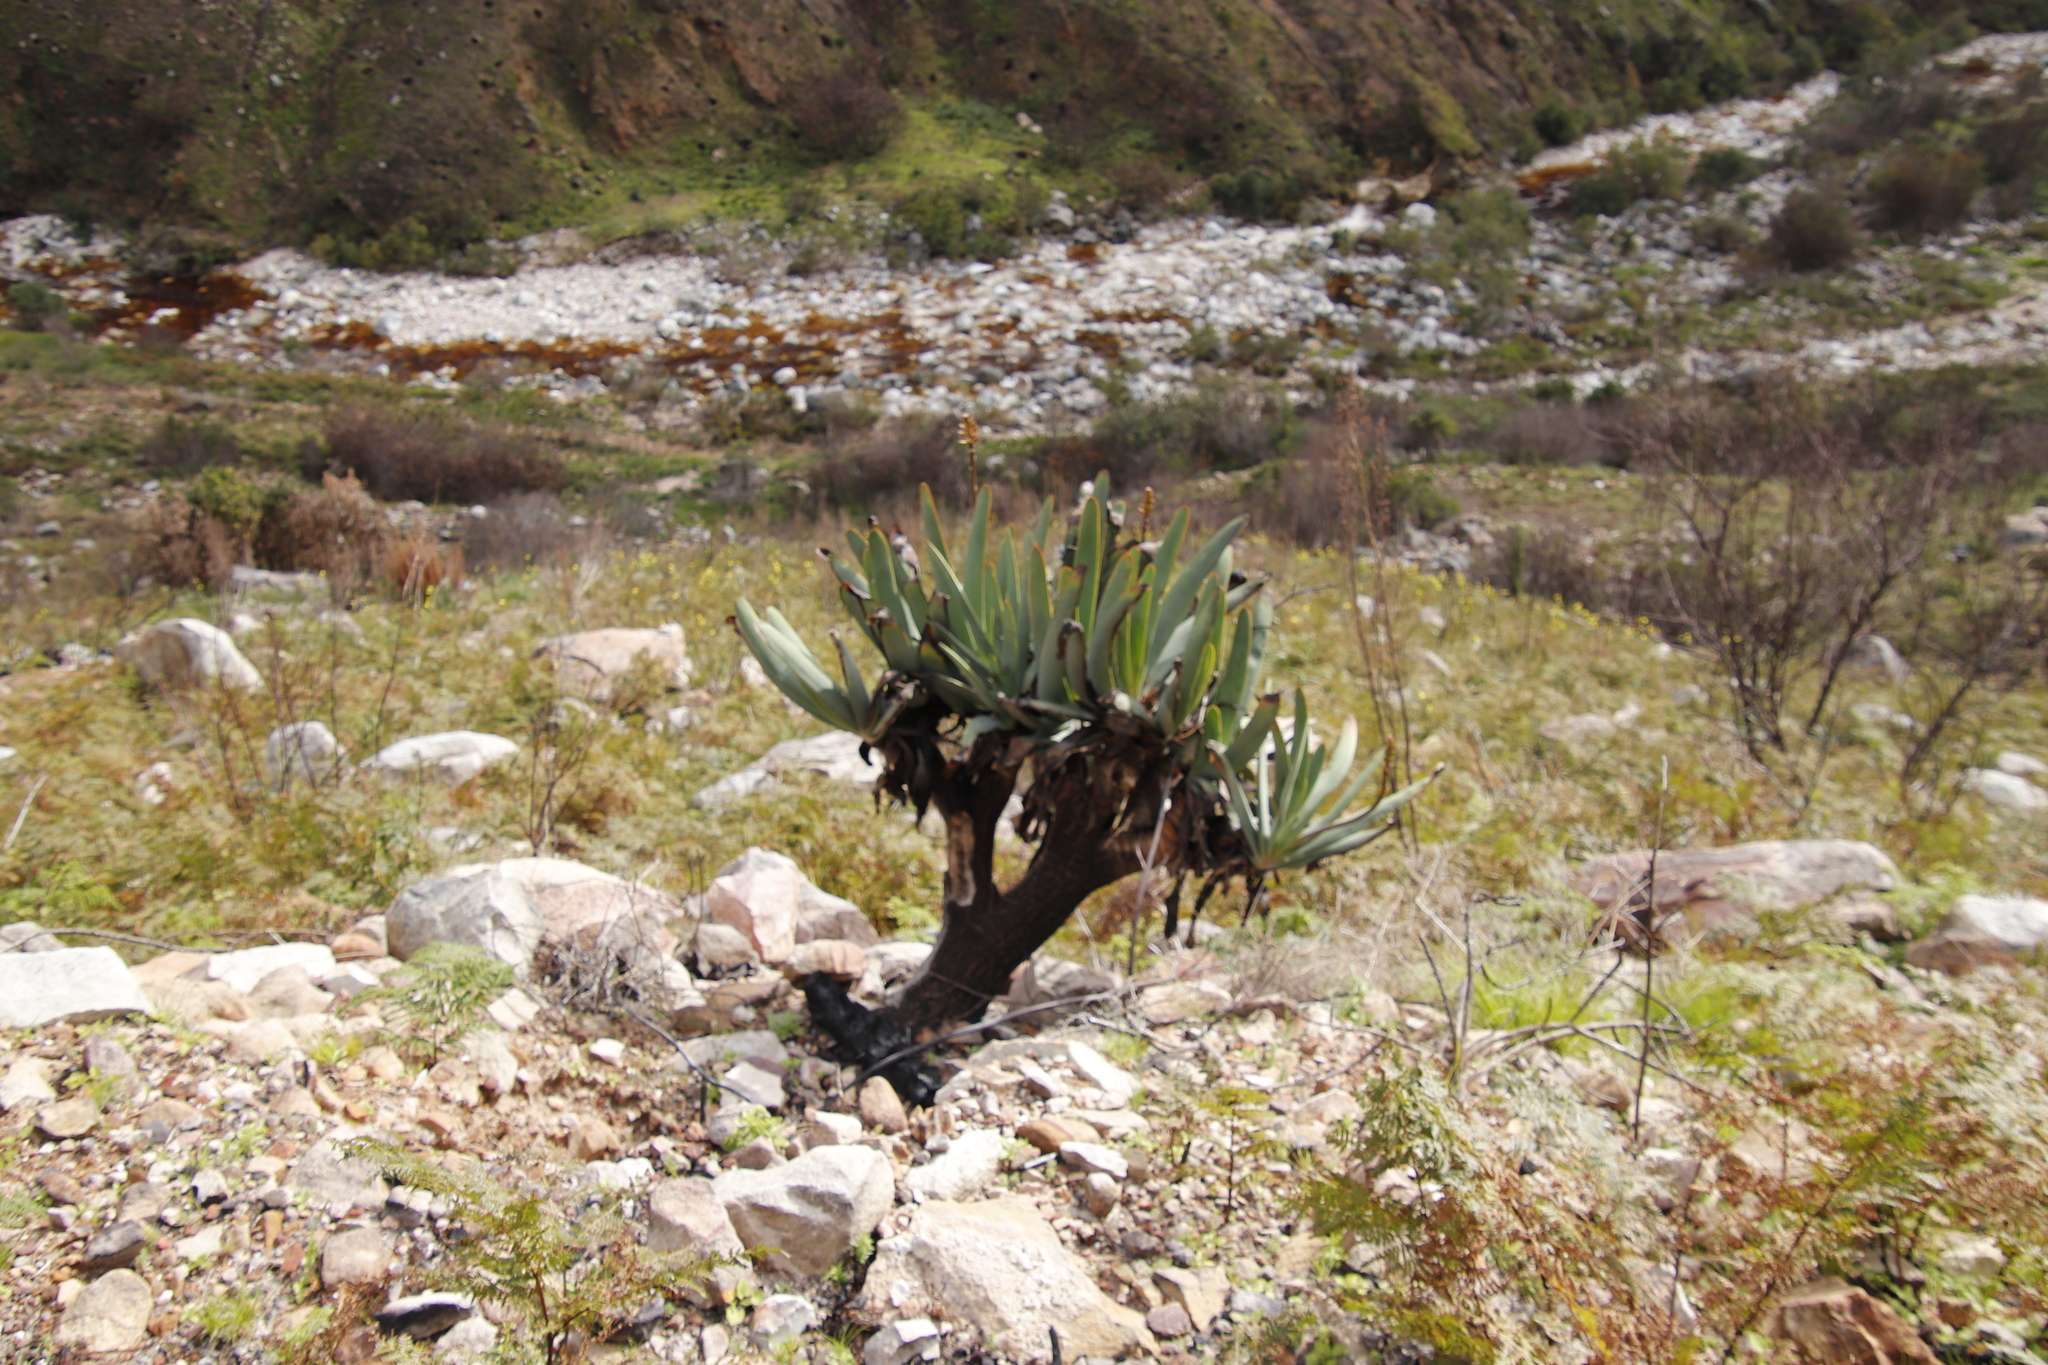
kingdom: Plantae
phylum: Tracheophyta
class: Liliopsida
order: Asparagales
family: Asphodelaceae
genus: Kumara
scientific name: Kumara plicatilis
